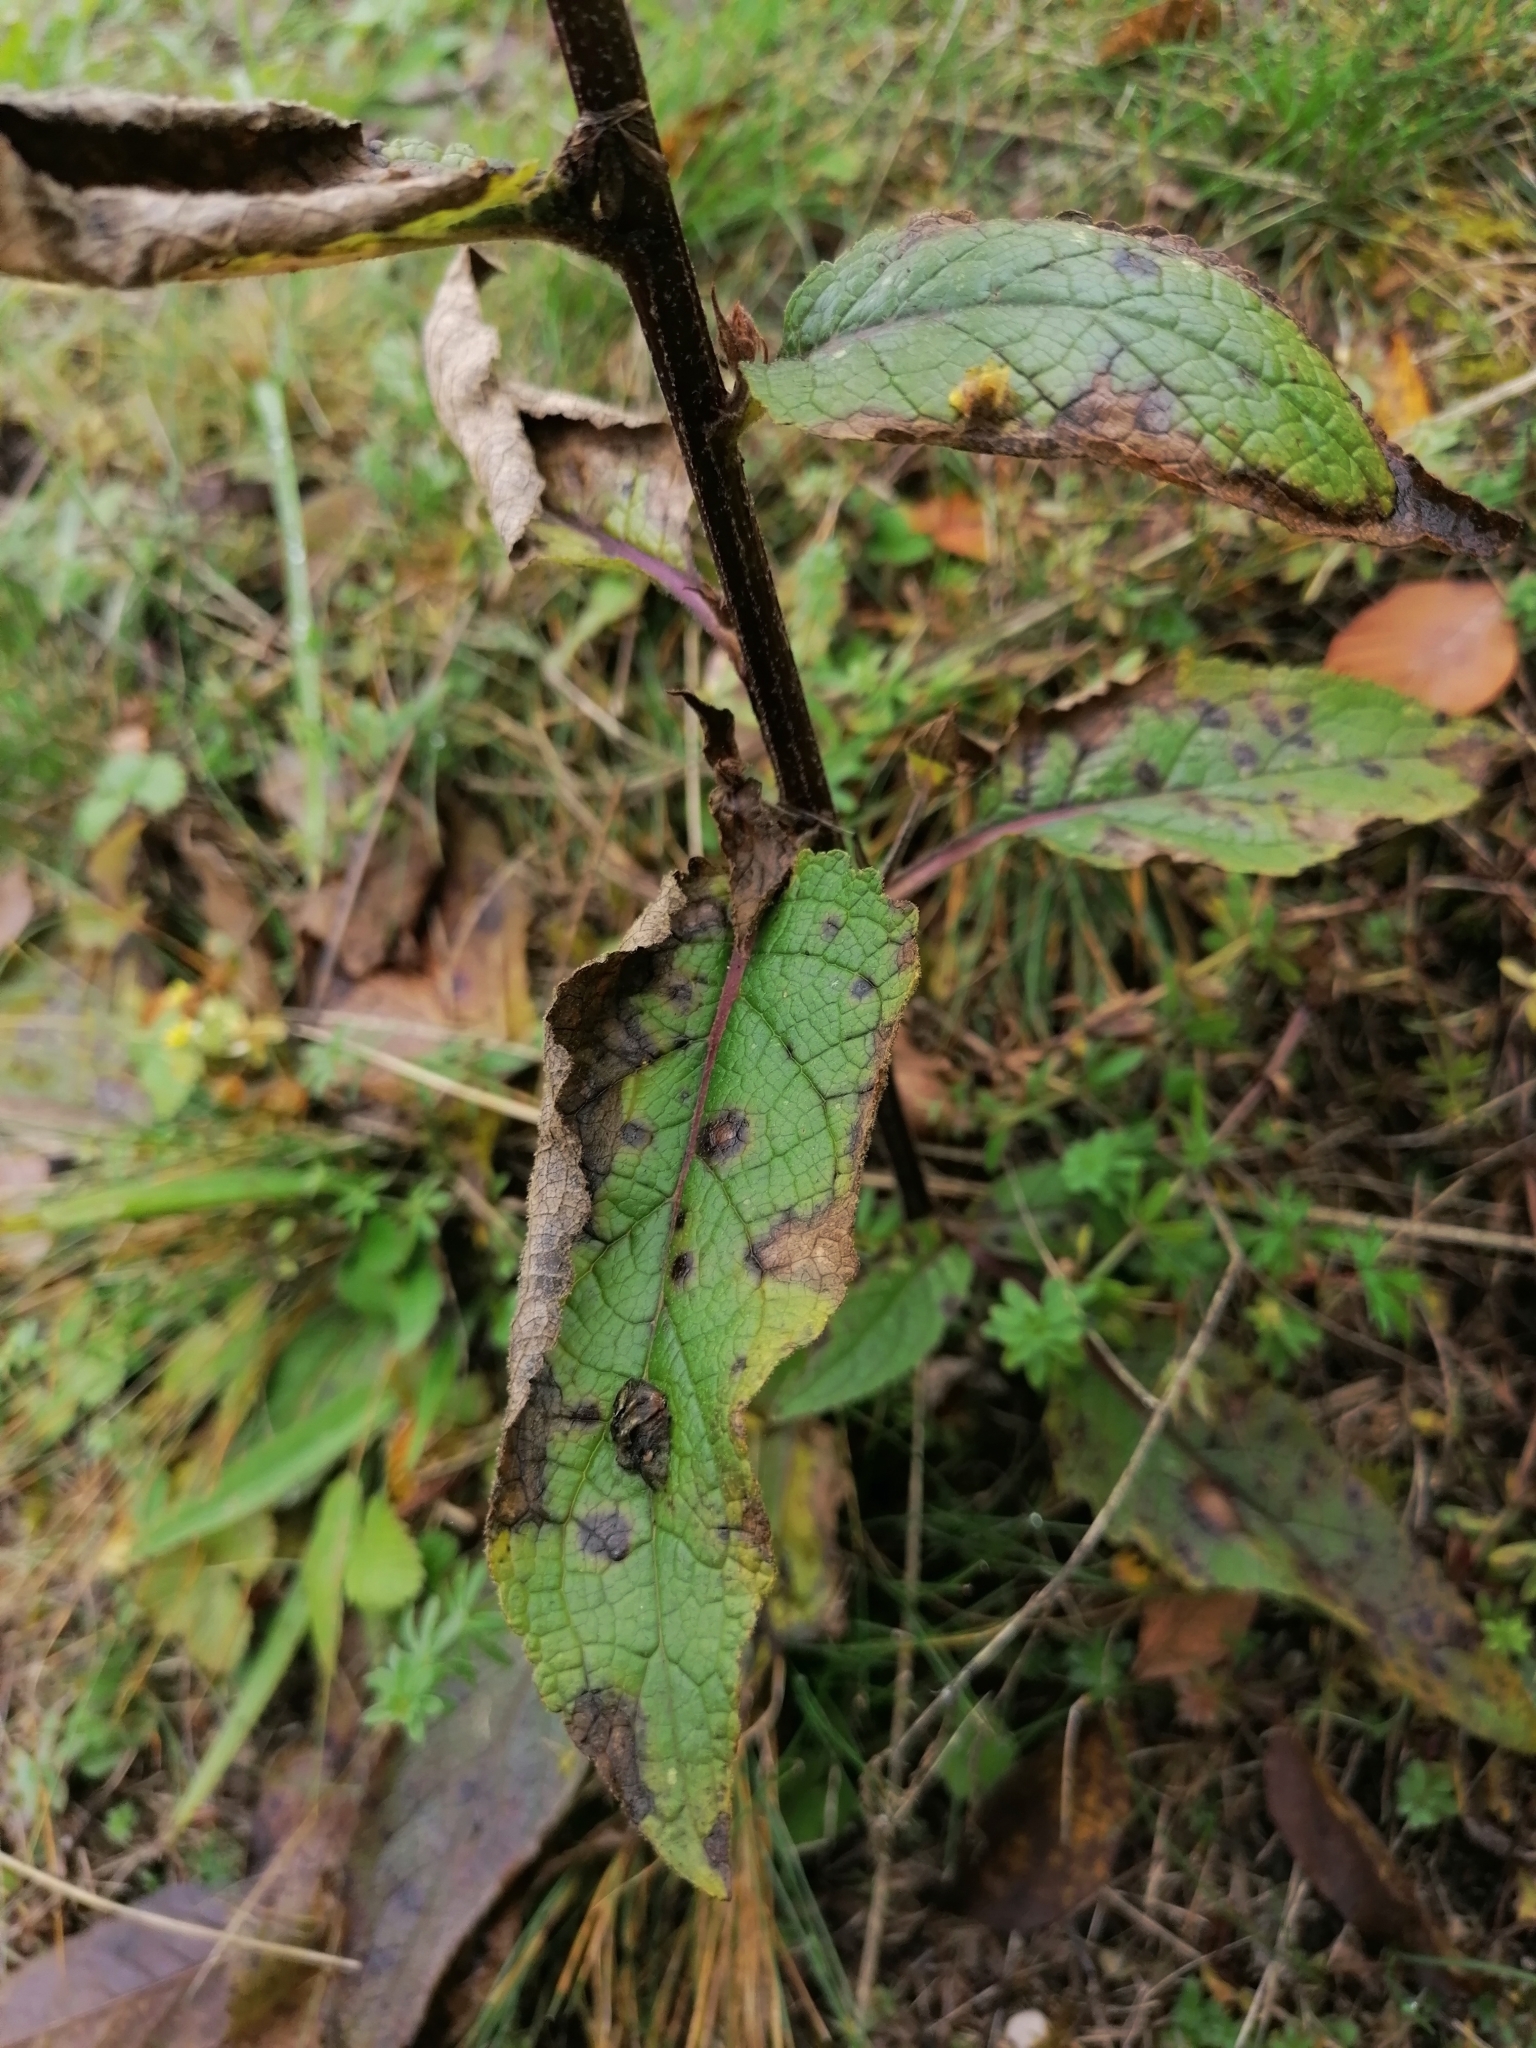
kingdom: Plantae
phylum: Tracheophyta
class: Magnoliopsida
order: Lamiales
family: Scrophulariaceae
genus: Verbascum
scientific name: Verbascum chaixii
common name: Nettle-leaved mullein
